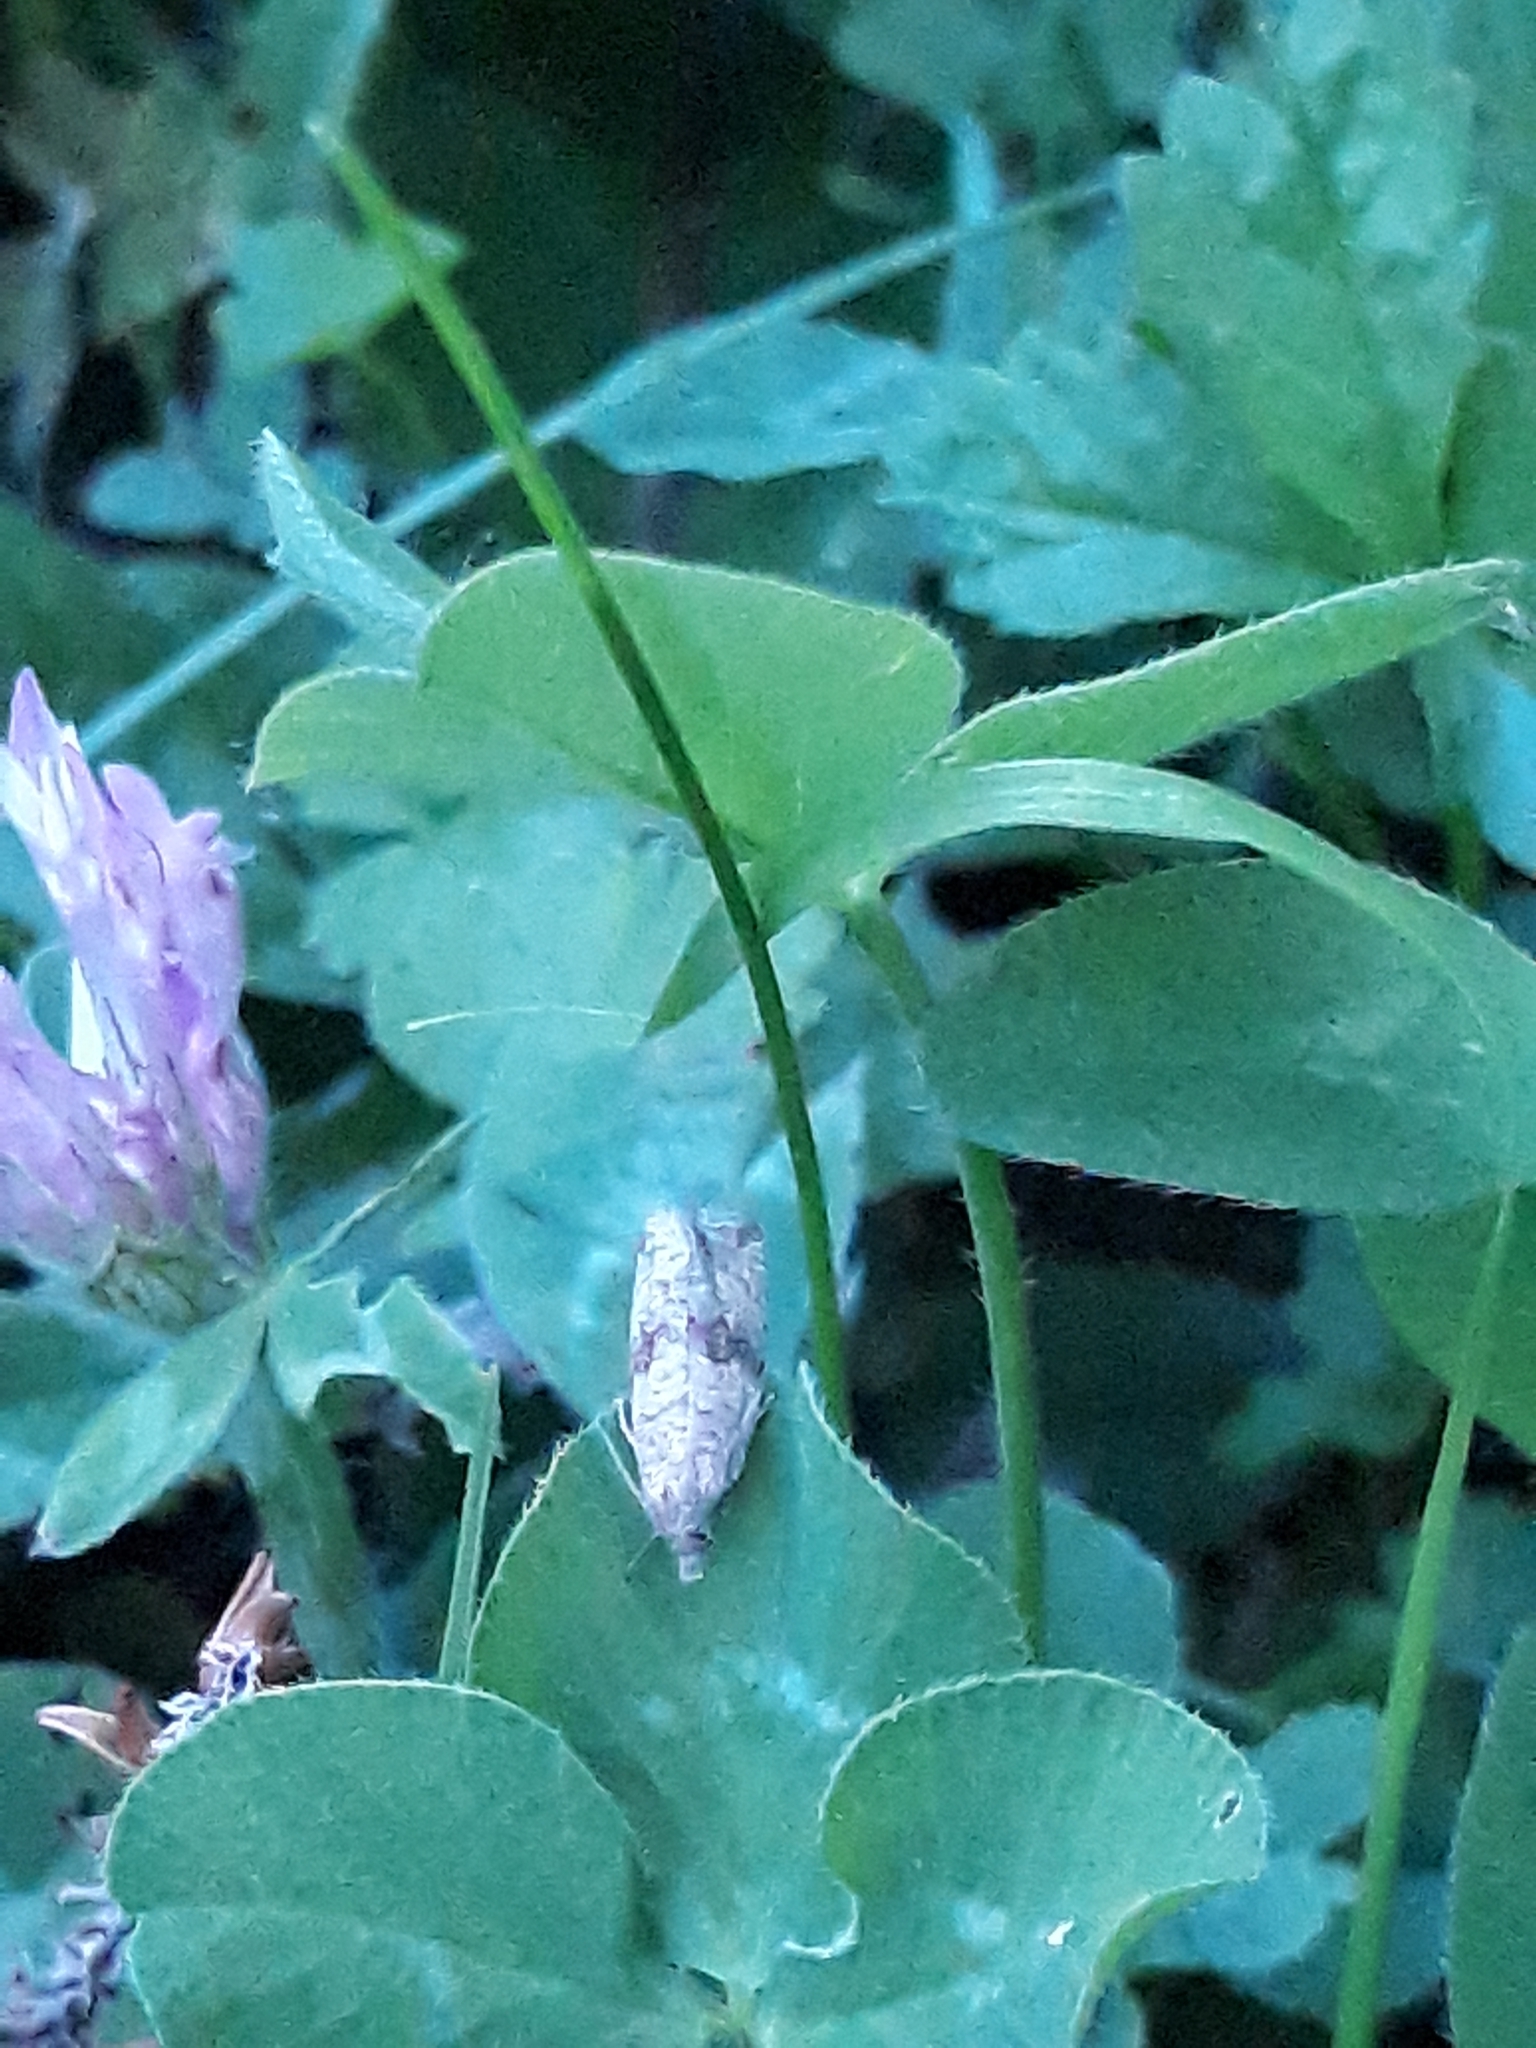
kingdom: Animalia
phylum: Arthropoda
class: Insecta
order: Lepidoptera
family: Tortricidae
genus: Celypha
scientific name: Celypha striana
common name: Barred marble
